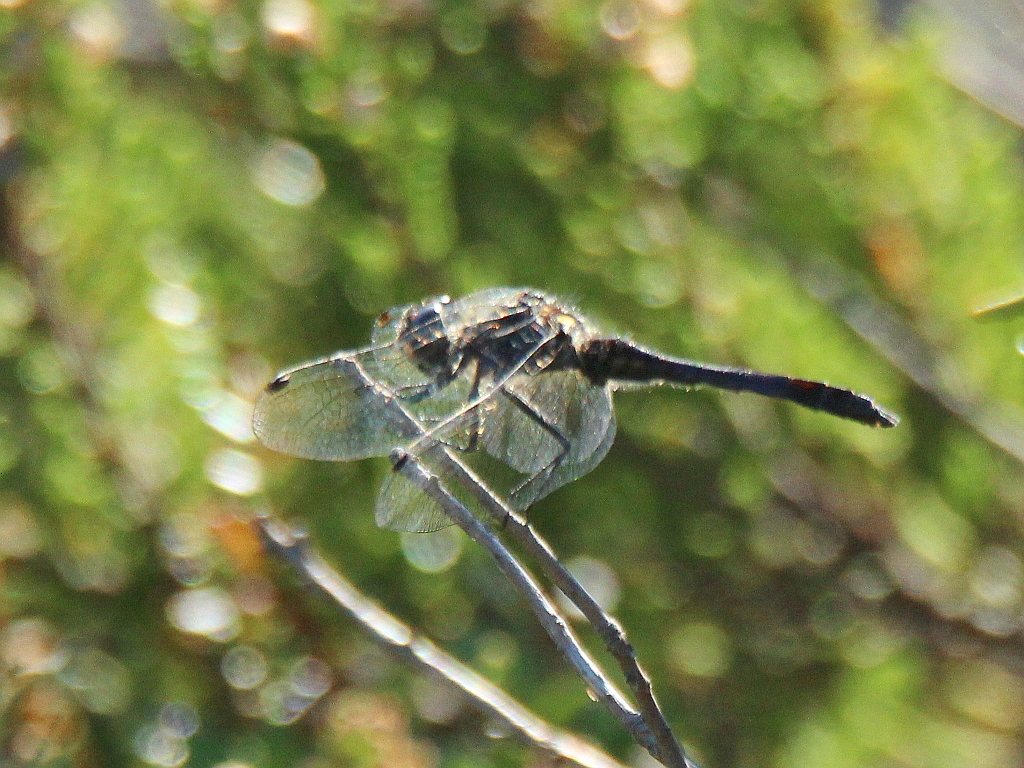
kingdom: Animalia
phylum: Arthropoda
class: Insecta
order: Odonata
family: Libellulidae
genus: Sympetrum
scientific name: Sympetrum danae
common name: Black darter
